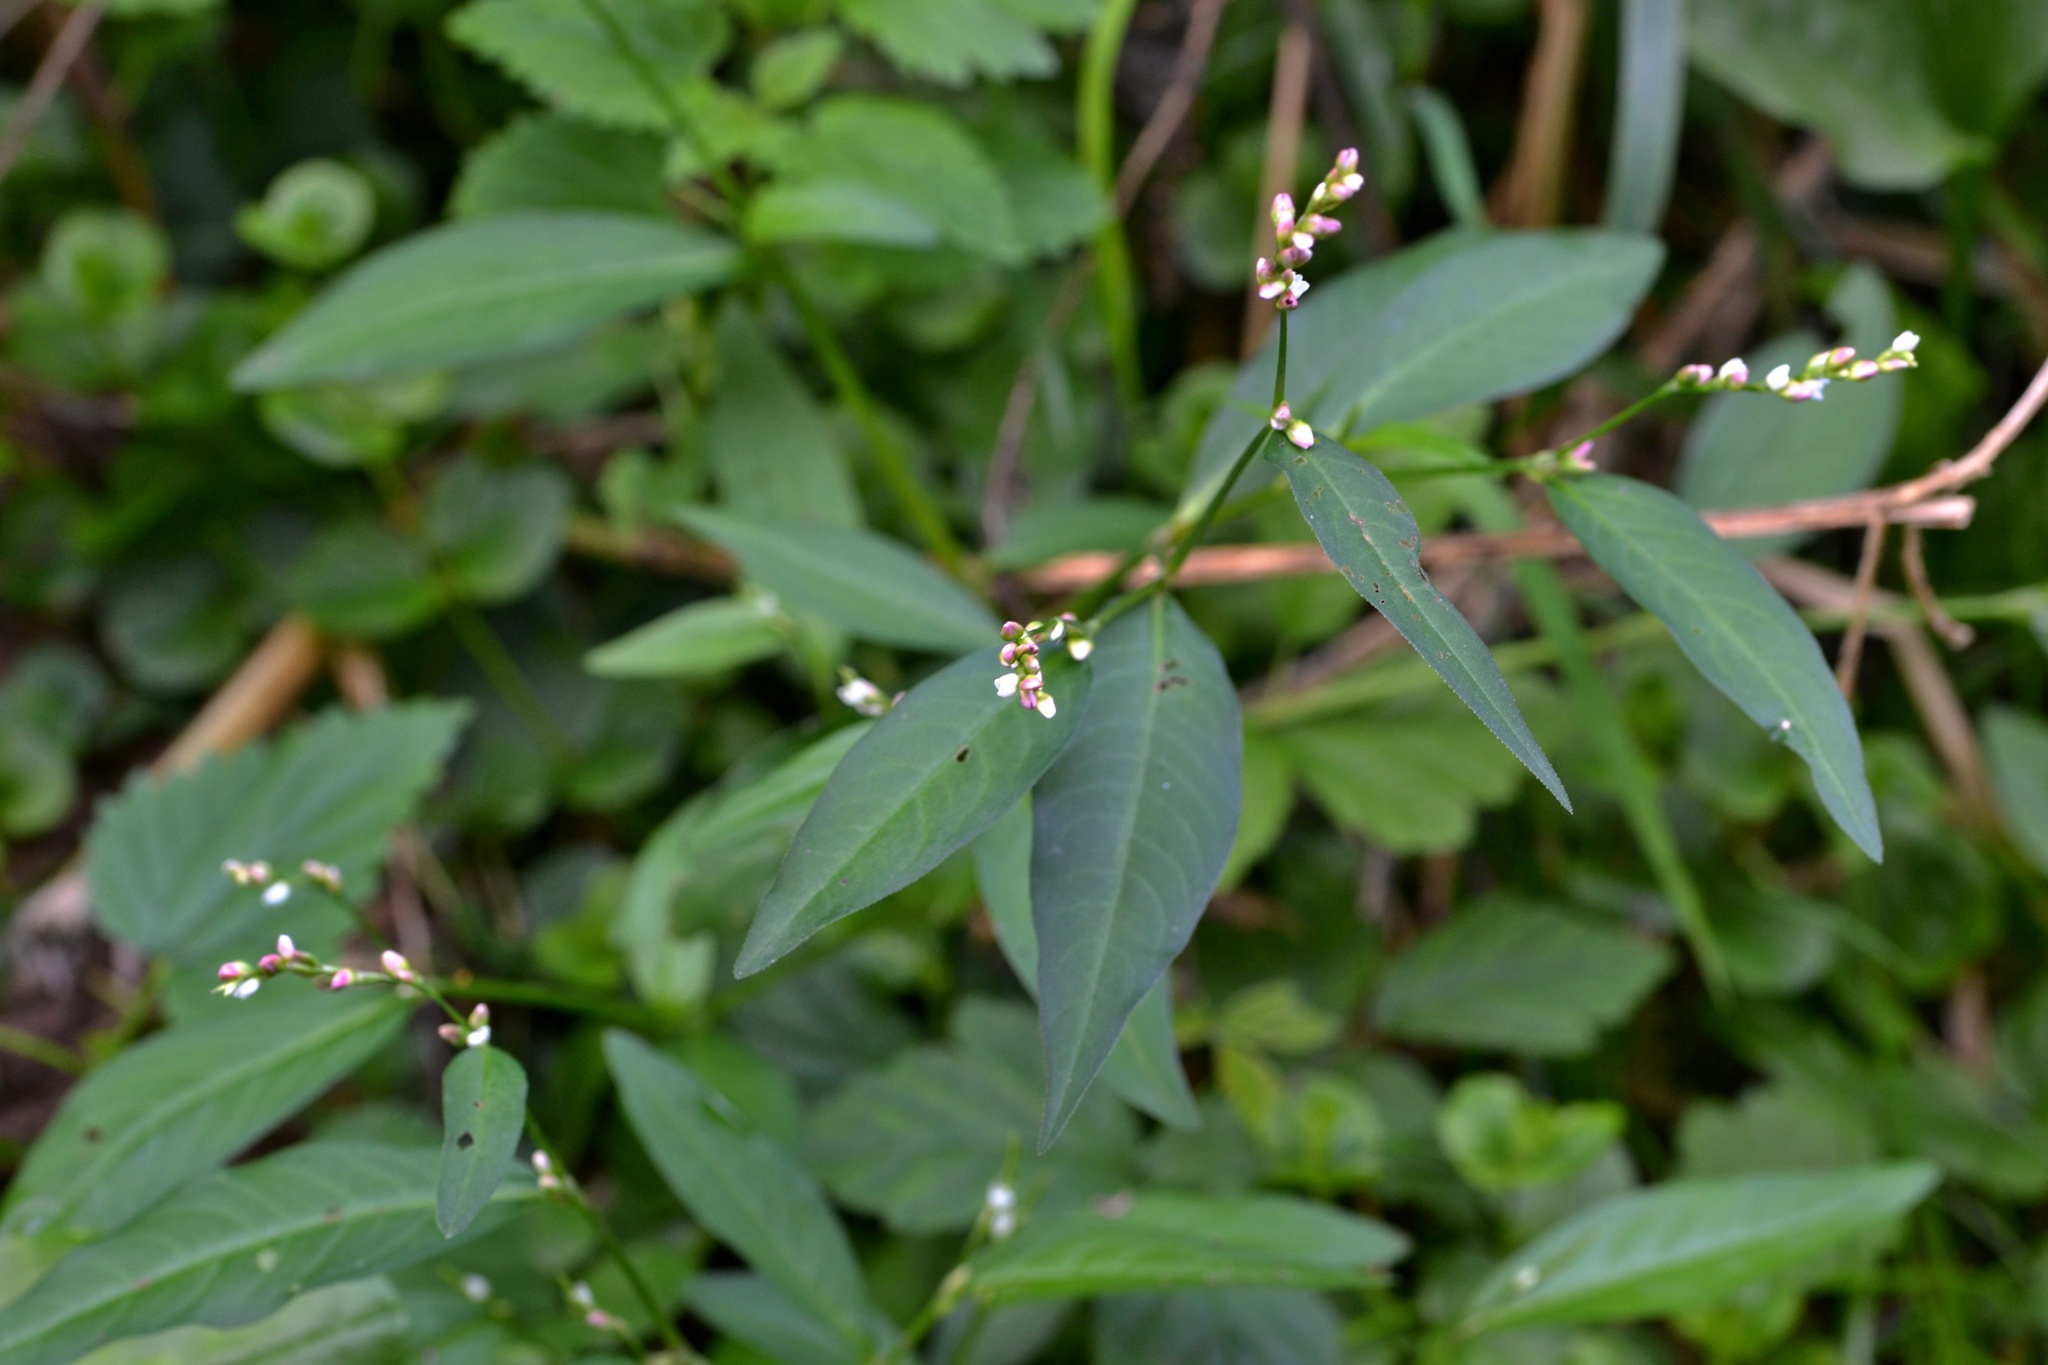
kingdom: Plantae
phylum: Tracheophyta
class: Magnoliopsida
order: Caryophyllales
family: Polygonaceae
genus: Persicaria
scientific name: Persicaria mitis
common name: Tasteless water-pepper
